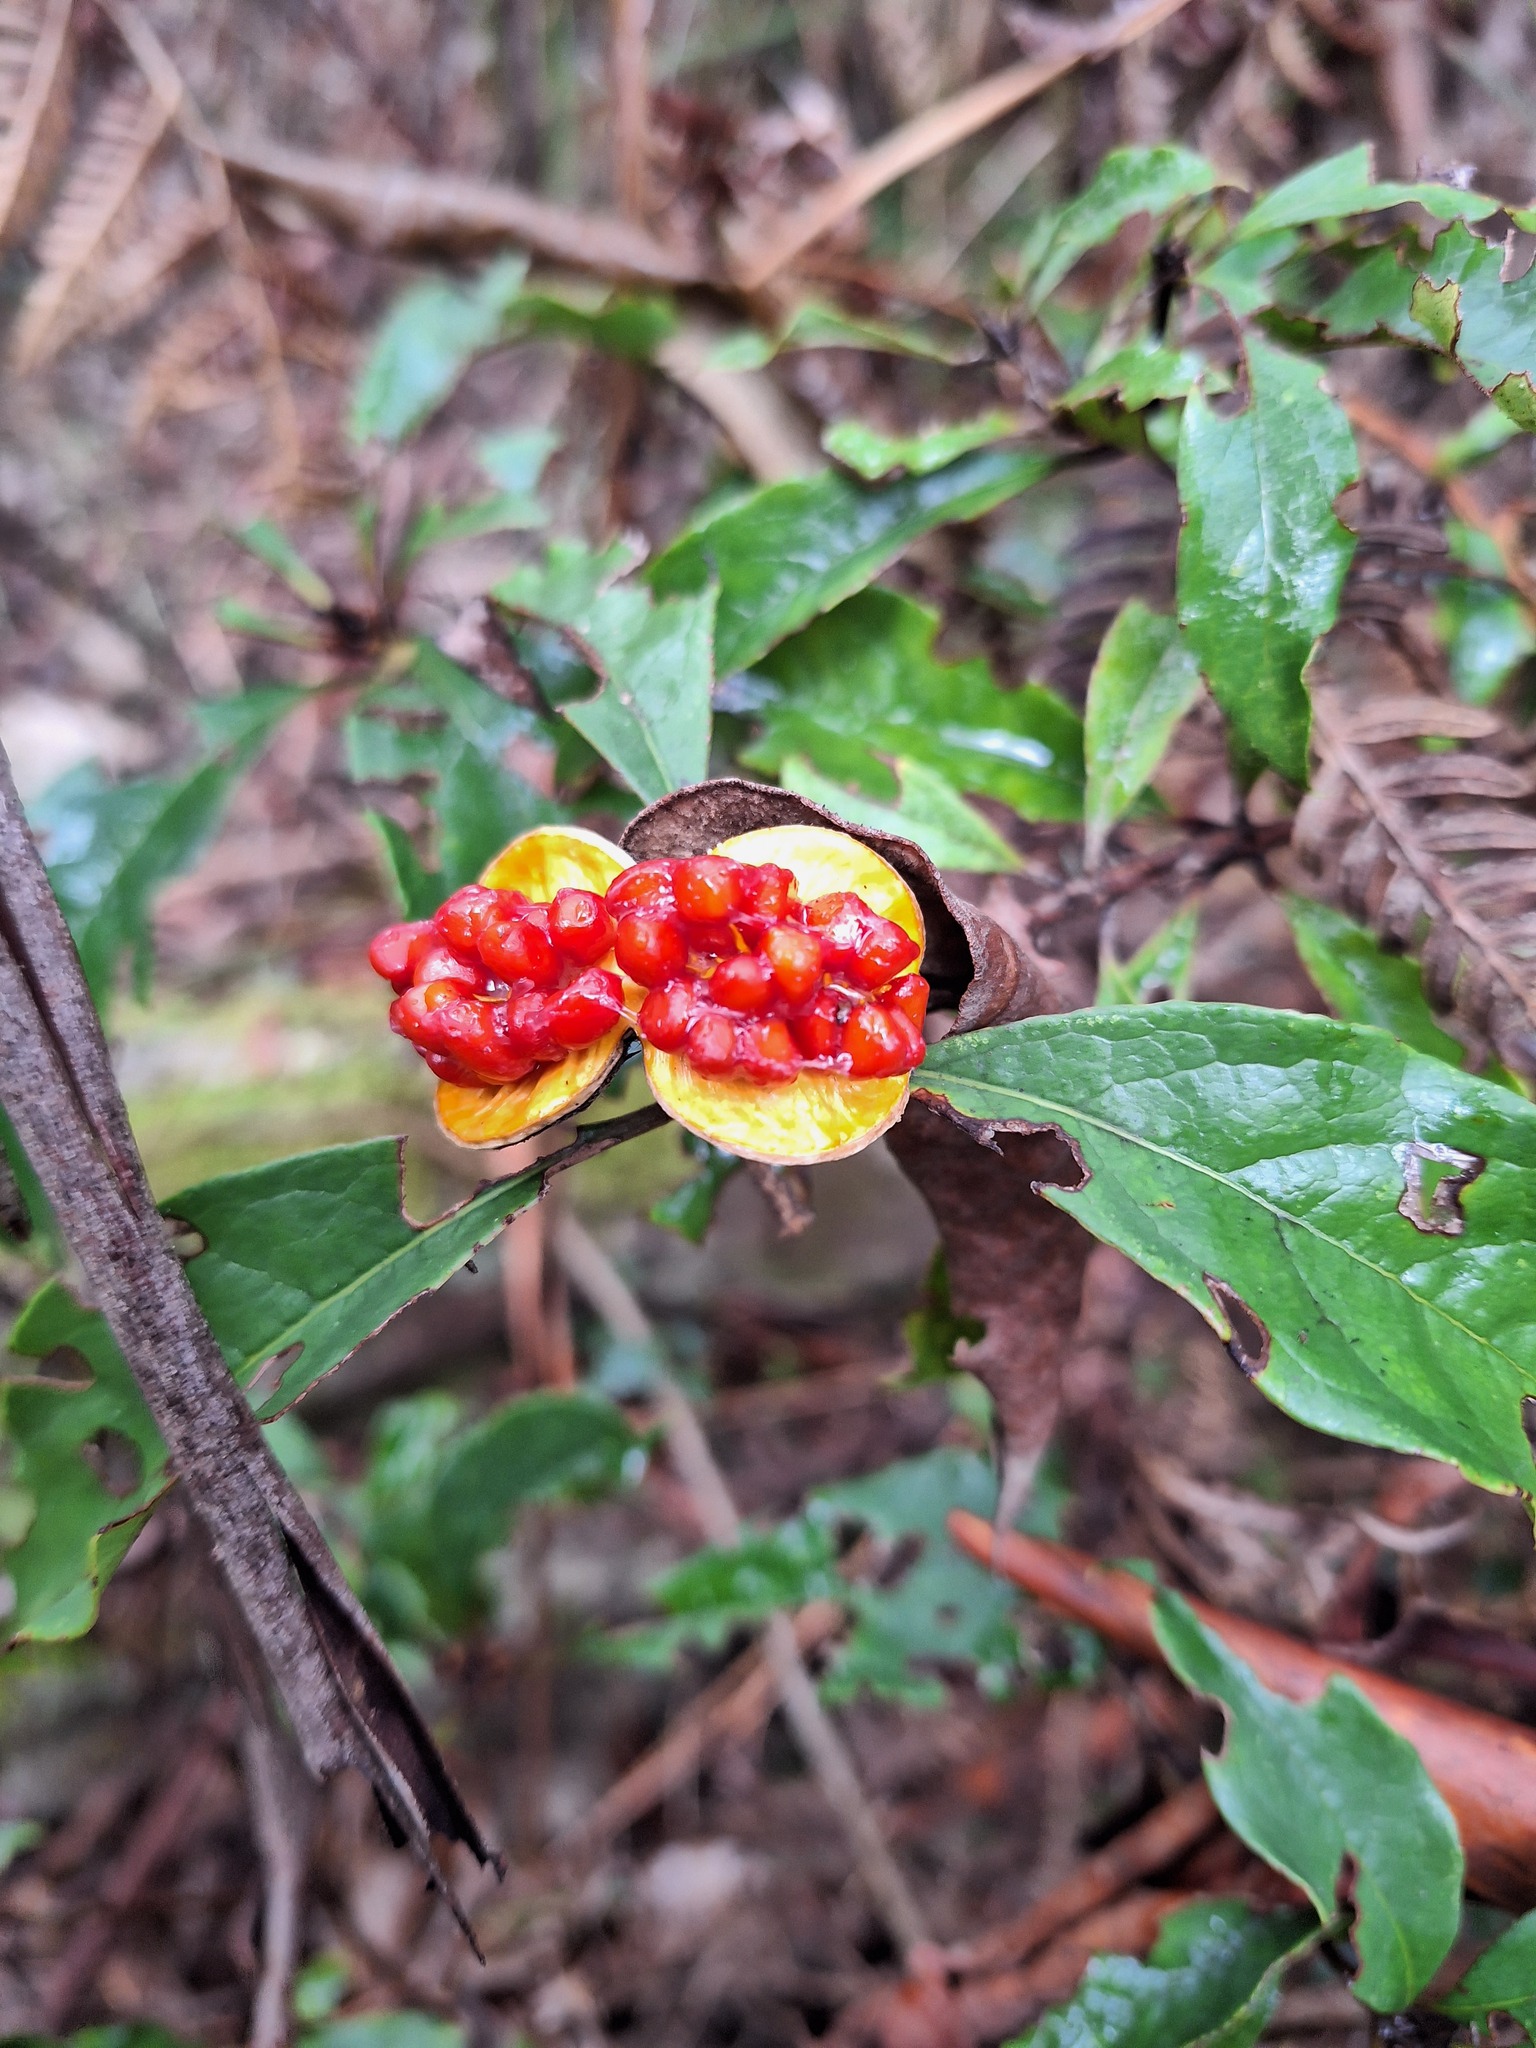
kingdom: Plantae
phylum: Tracheophyta
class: Magnoliopsida
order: Apiales
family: Pittosporaceae
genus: Pittosporum
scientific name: Pittosporum revolutum
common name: Brisbane-laurel
